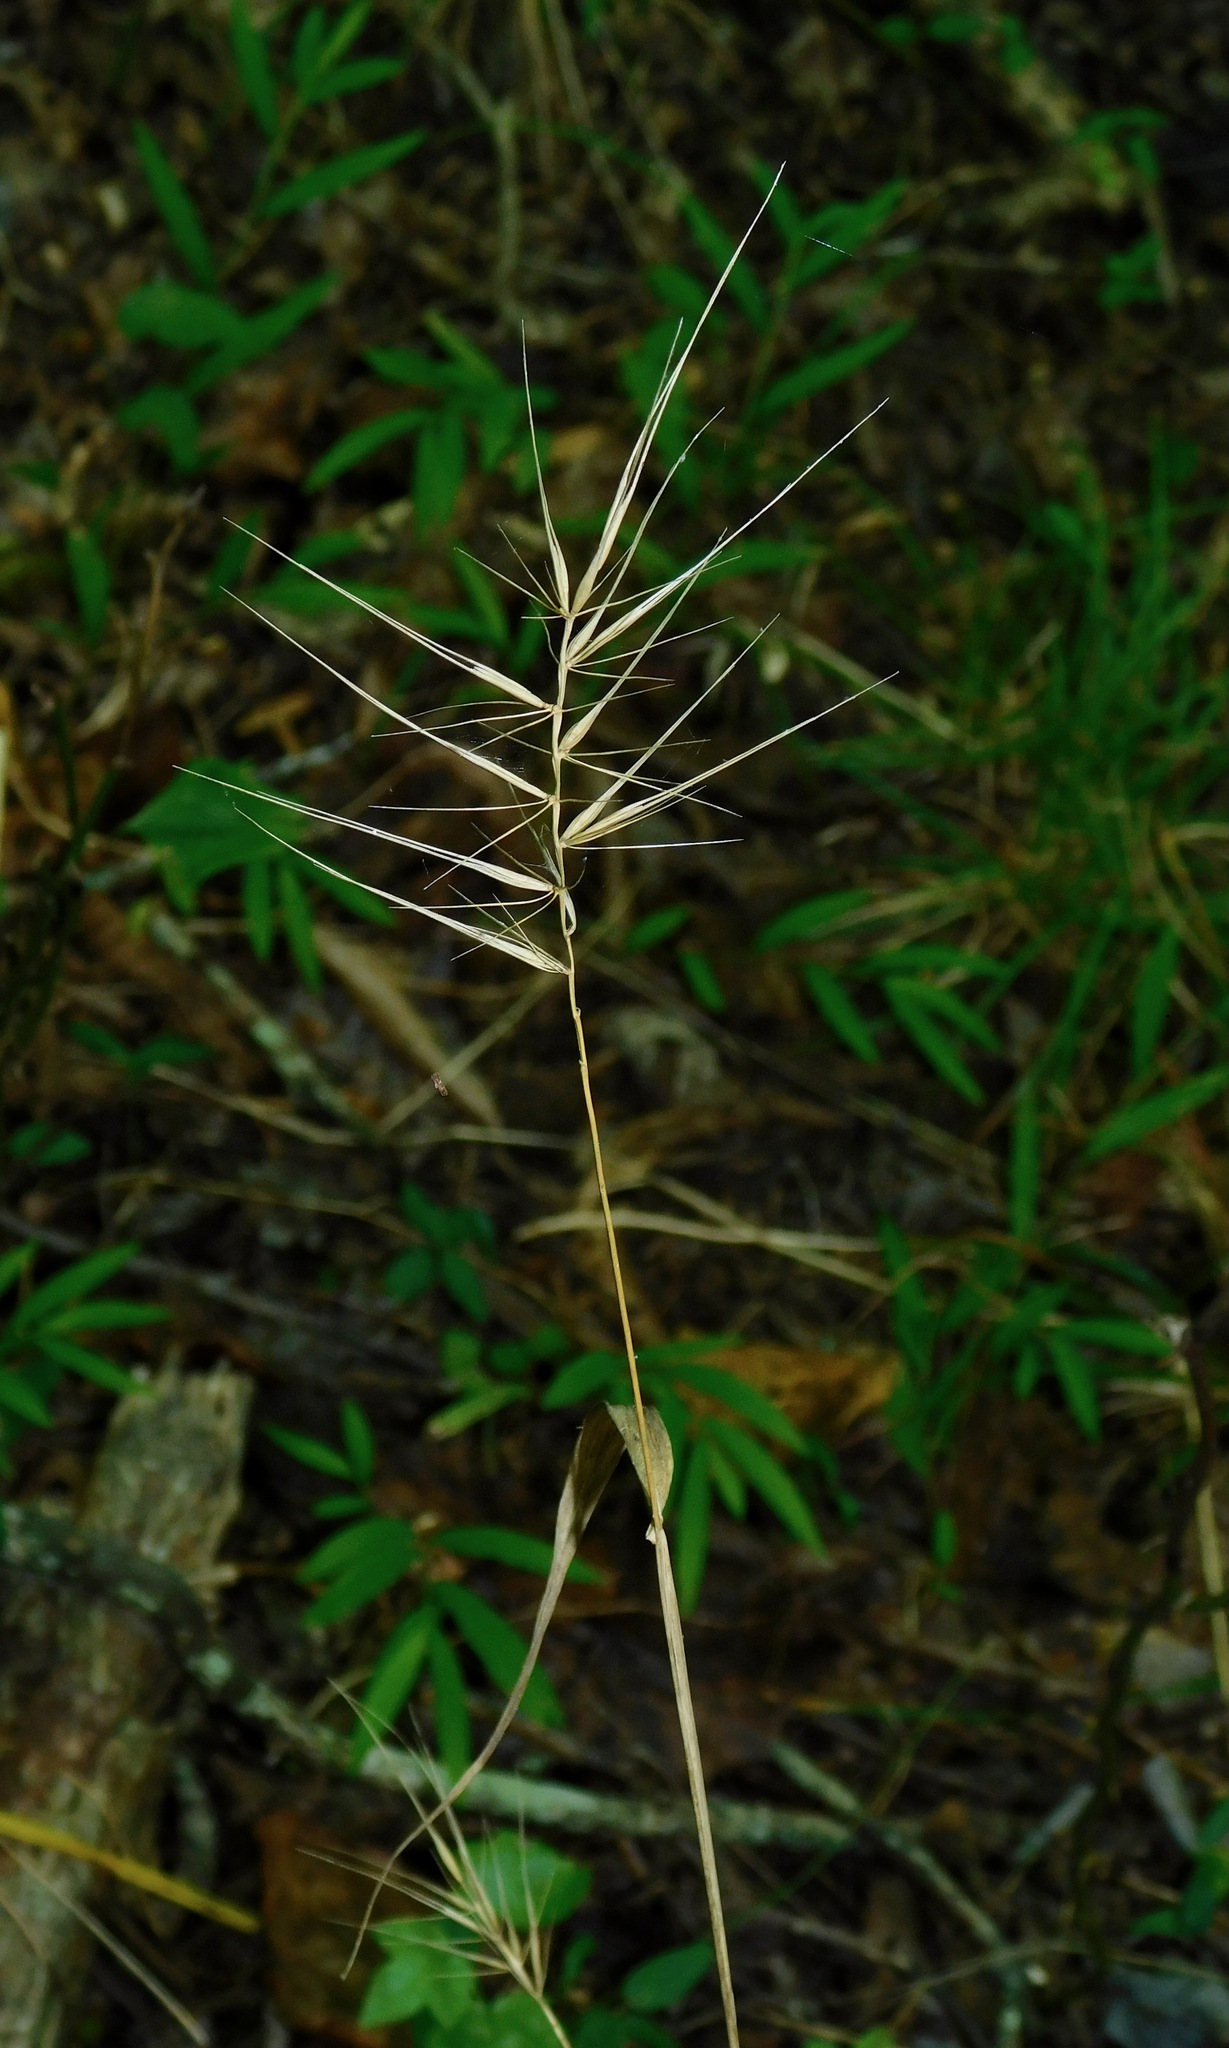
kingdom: Plantae
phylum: Tracheophyta
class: Liliopsida
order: Poales
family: Poaceae
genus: Elymus
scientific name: Elymus hystrix
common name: Bottlebrush grass
